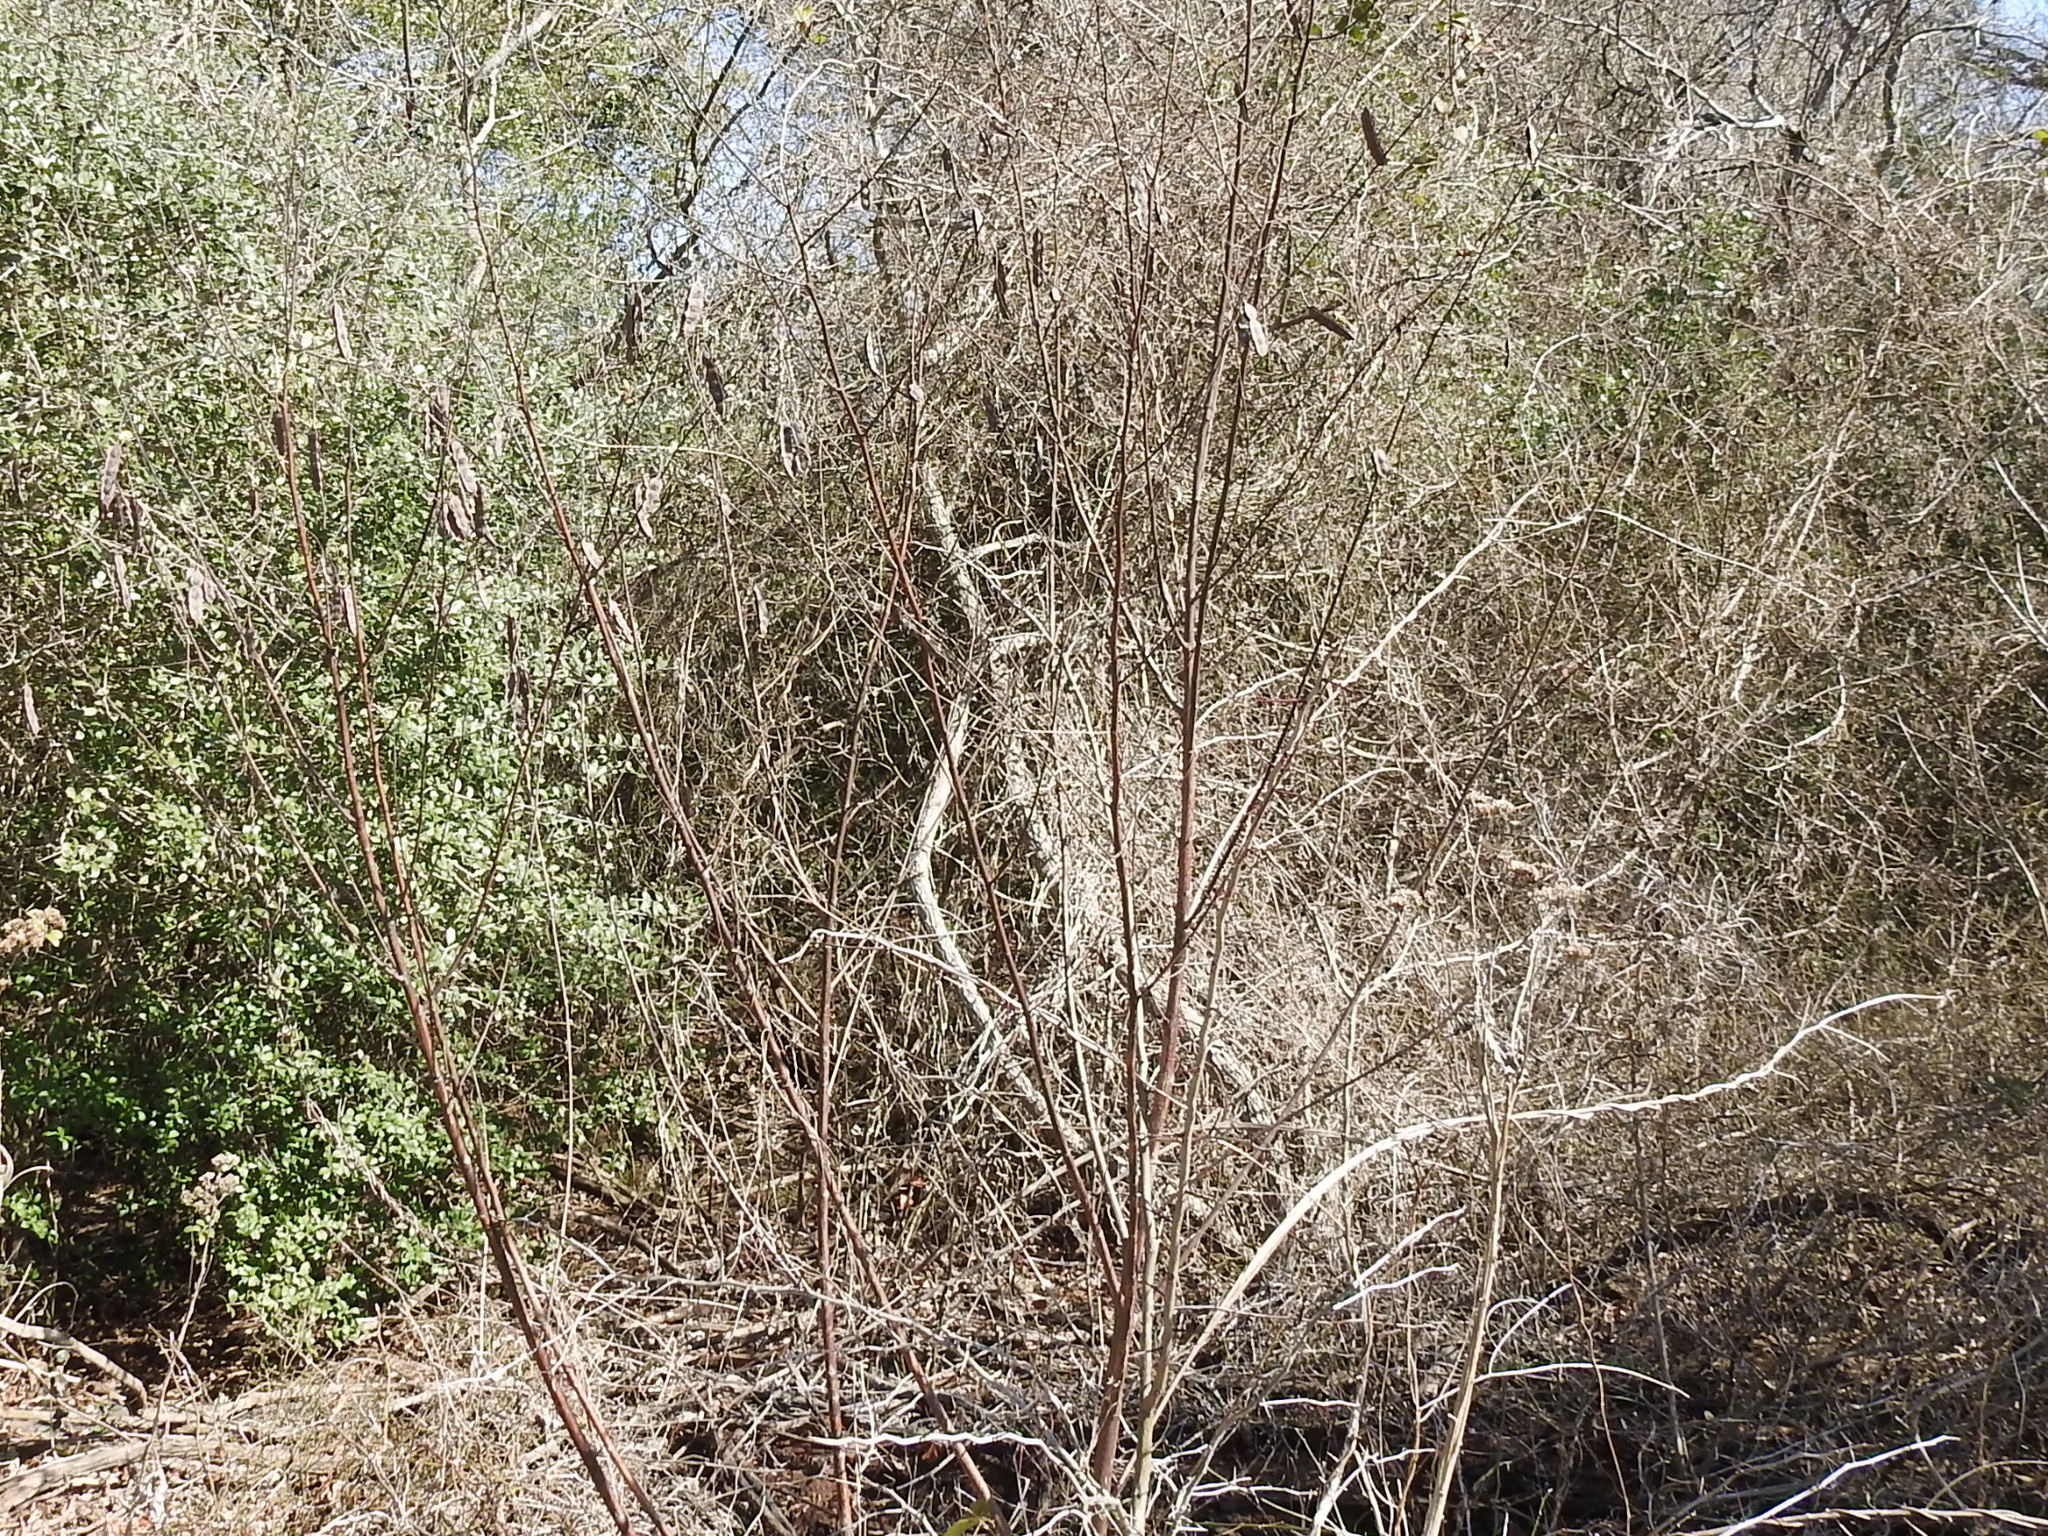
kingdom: Plantae
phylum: Tracheophyta
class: Magnoliopsida
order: Fabales
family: Fabaceae
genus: Sesbania
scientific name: Sesbania drummondii
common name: Poison-bean
